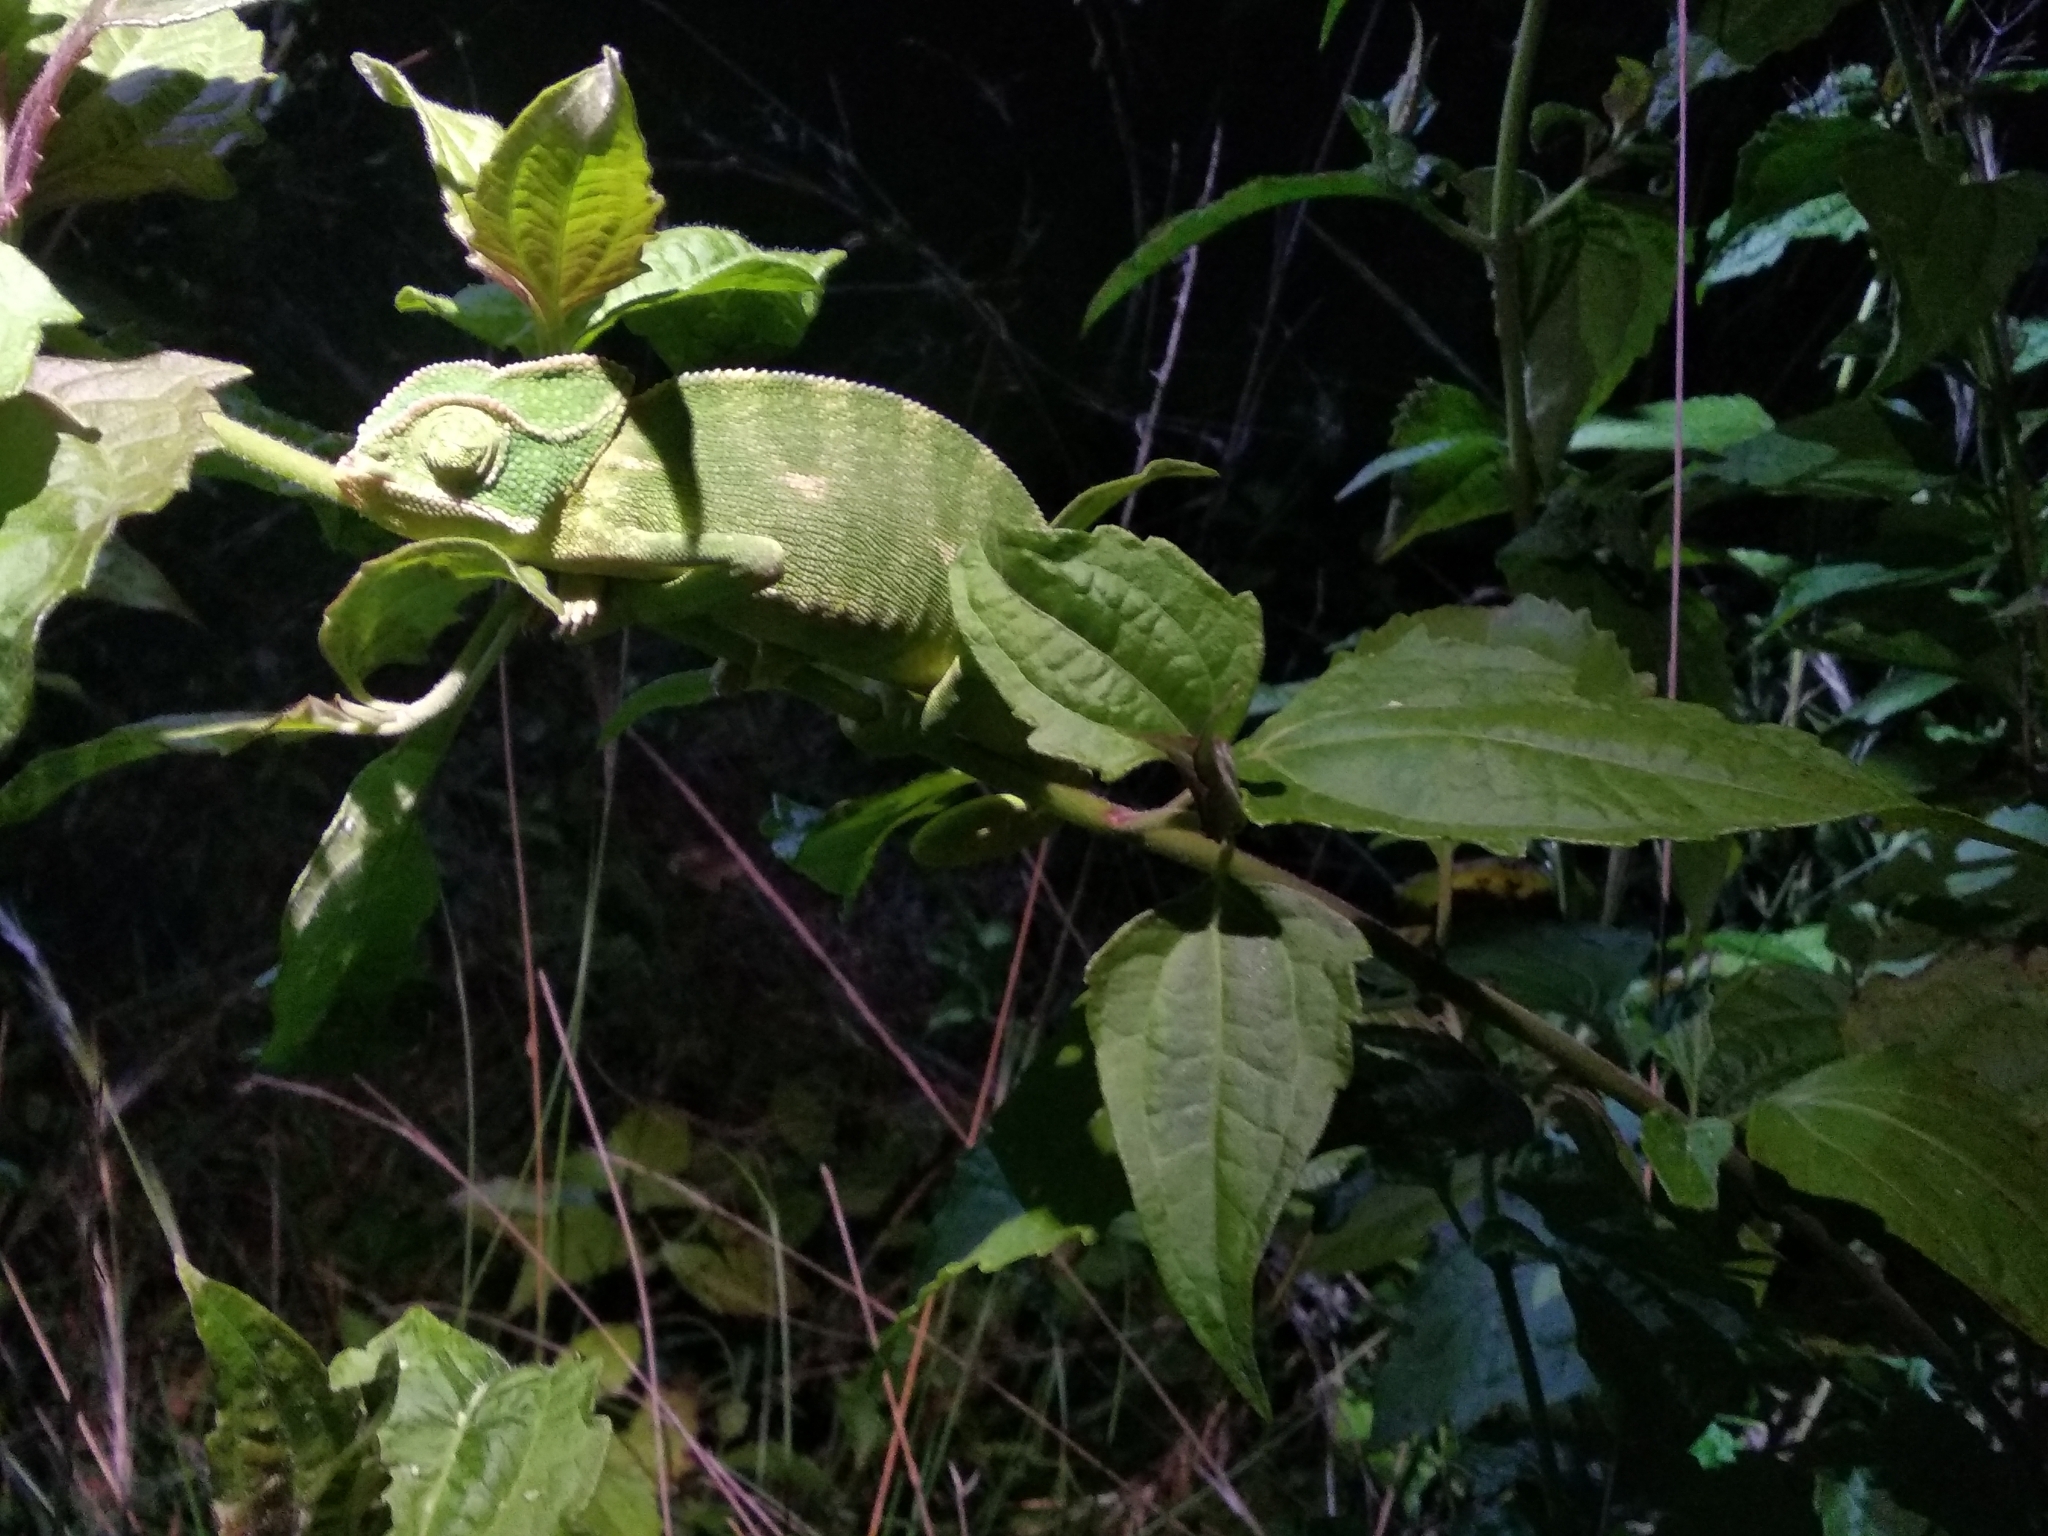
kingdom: Animalia
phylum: Chordata
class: Squamata
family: Chamaeleonidae
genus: Chamaeleo
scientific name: Chamaeleo zeylanicus
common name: Indian chameleon
